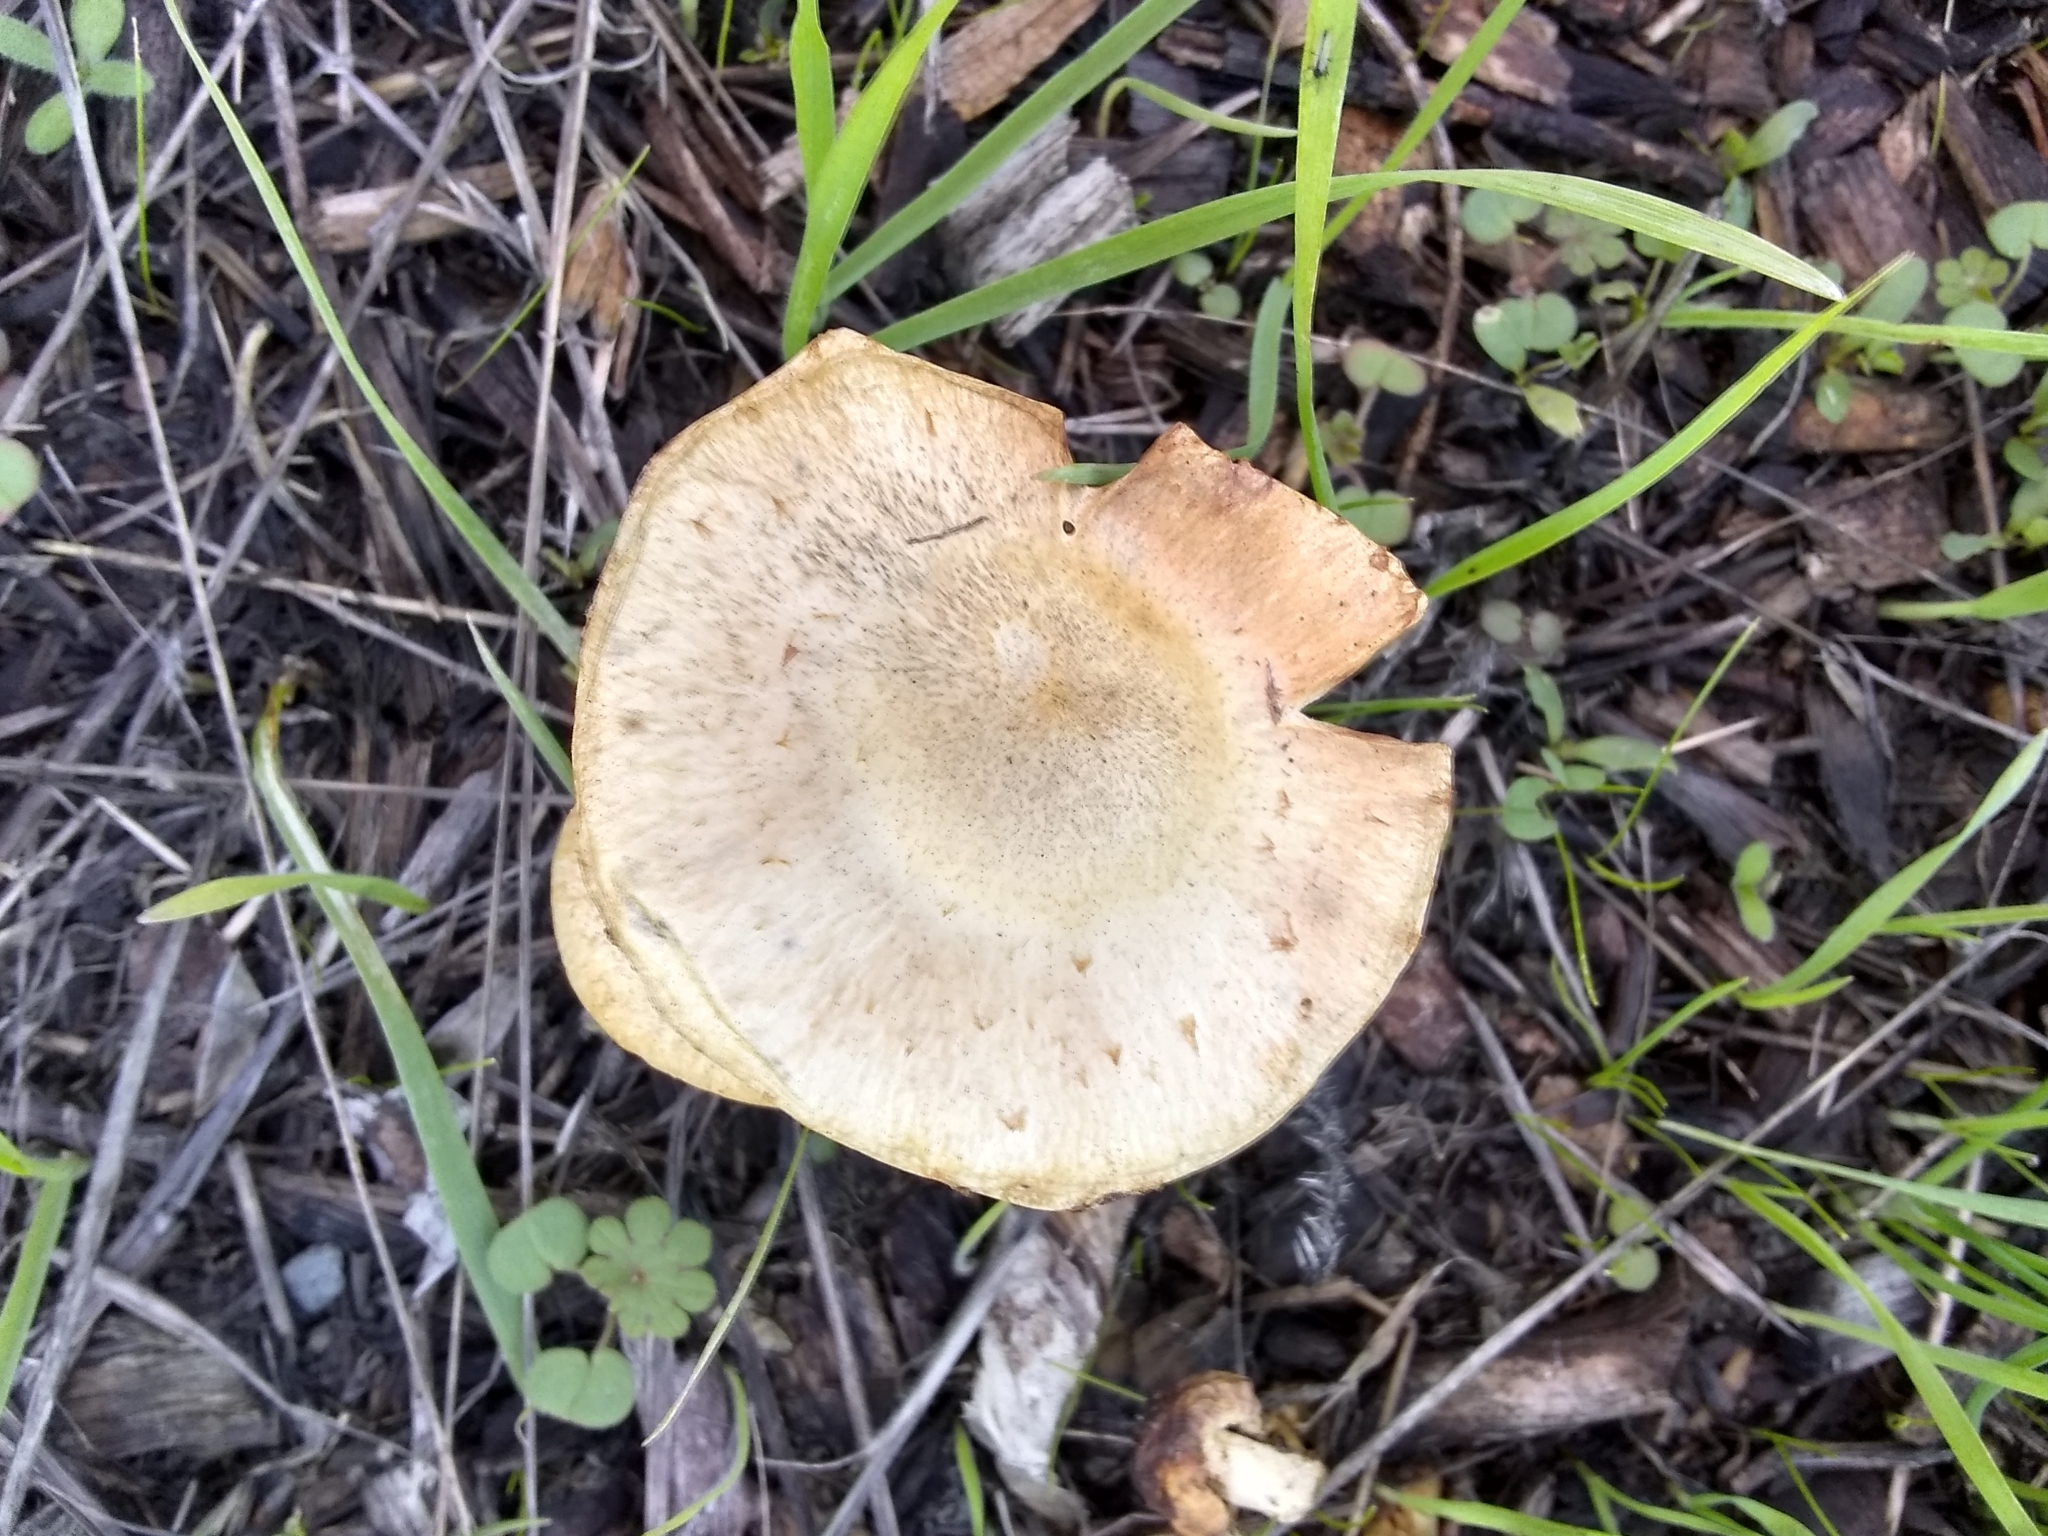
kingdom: Fungi
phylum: Basidiomycota
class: Agaricomycetes
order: Agaricales
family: Strophariaceae
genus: Leratiomyces
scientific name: Leratiomyces percevalii
